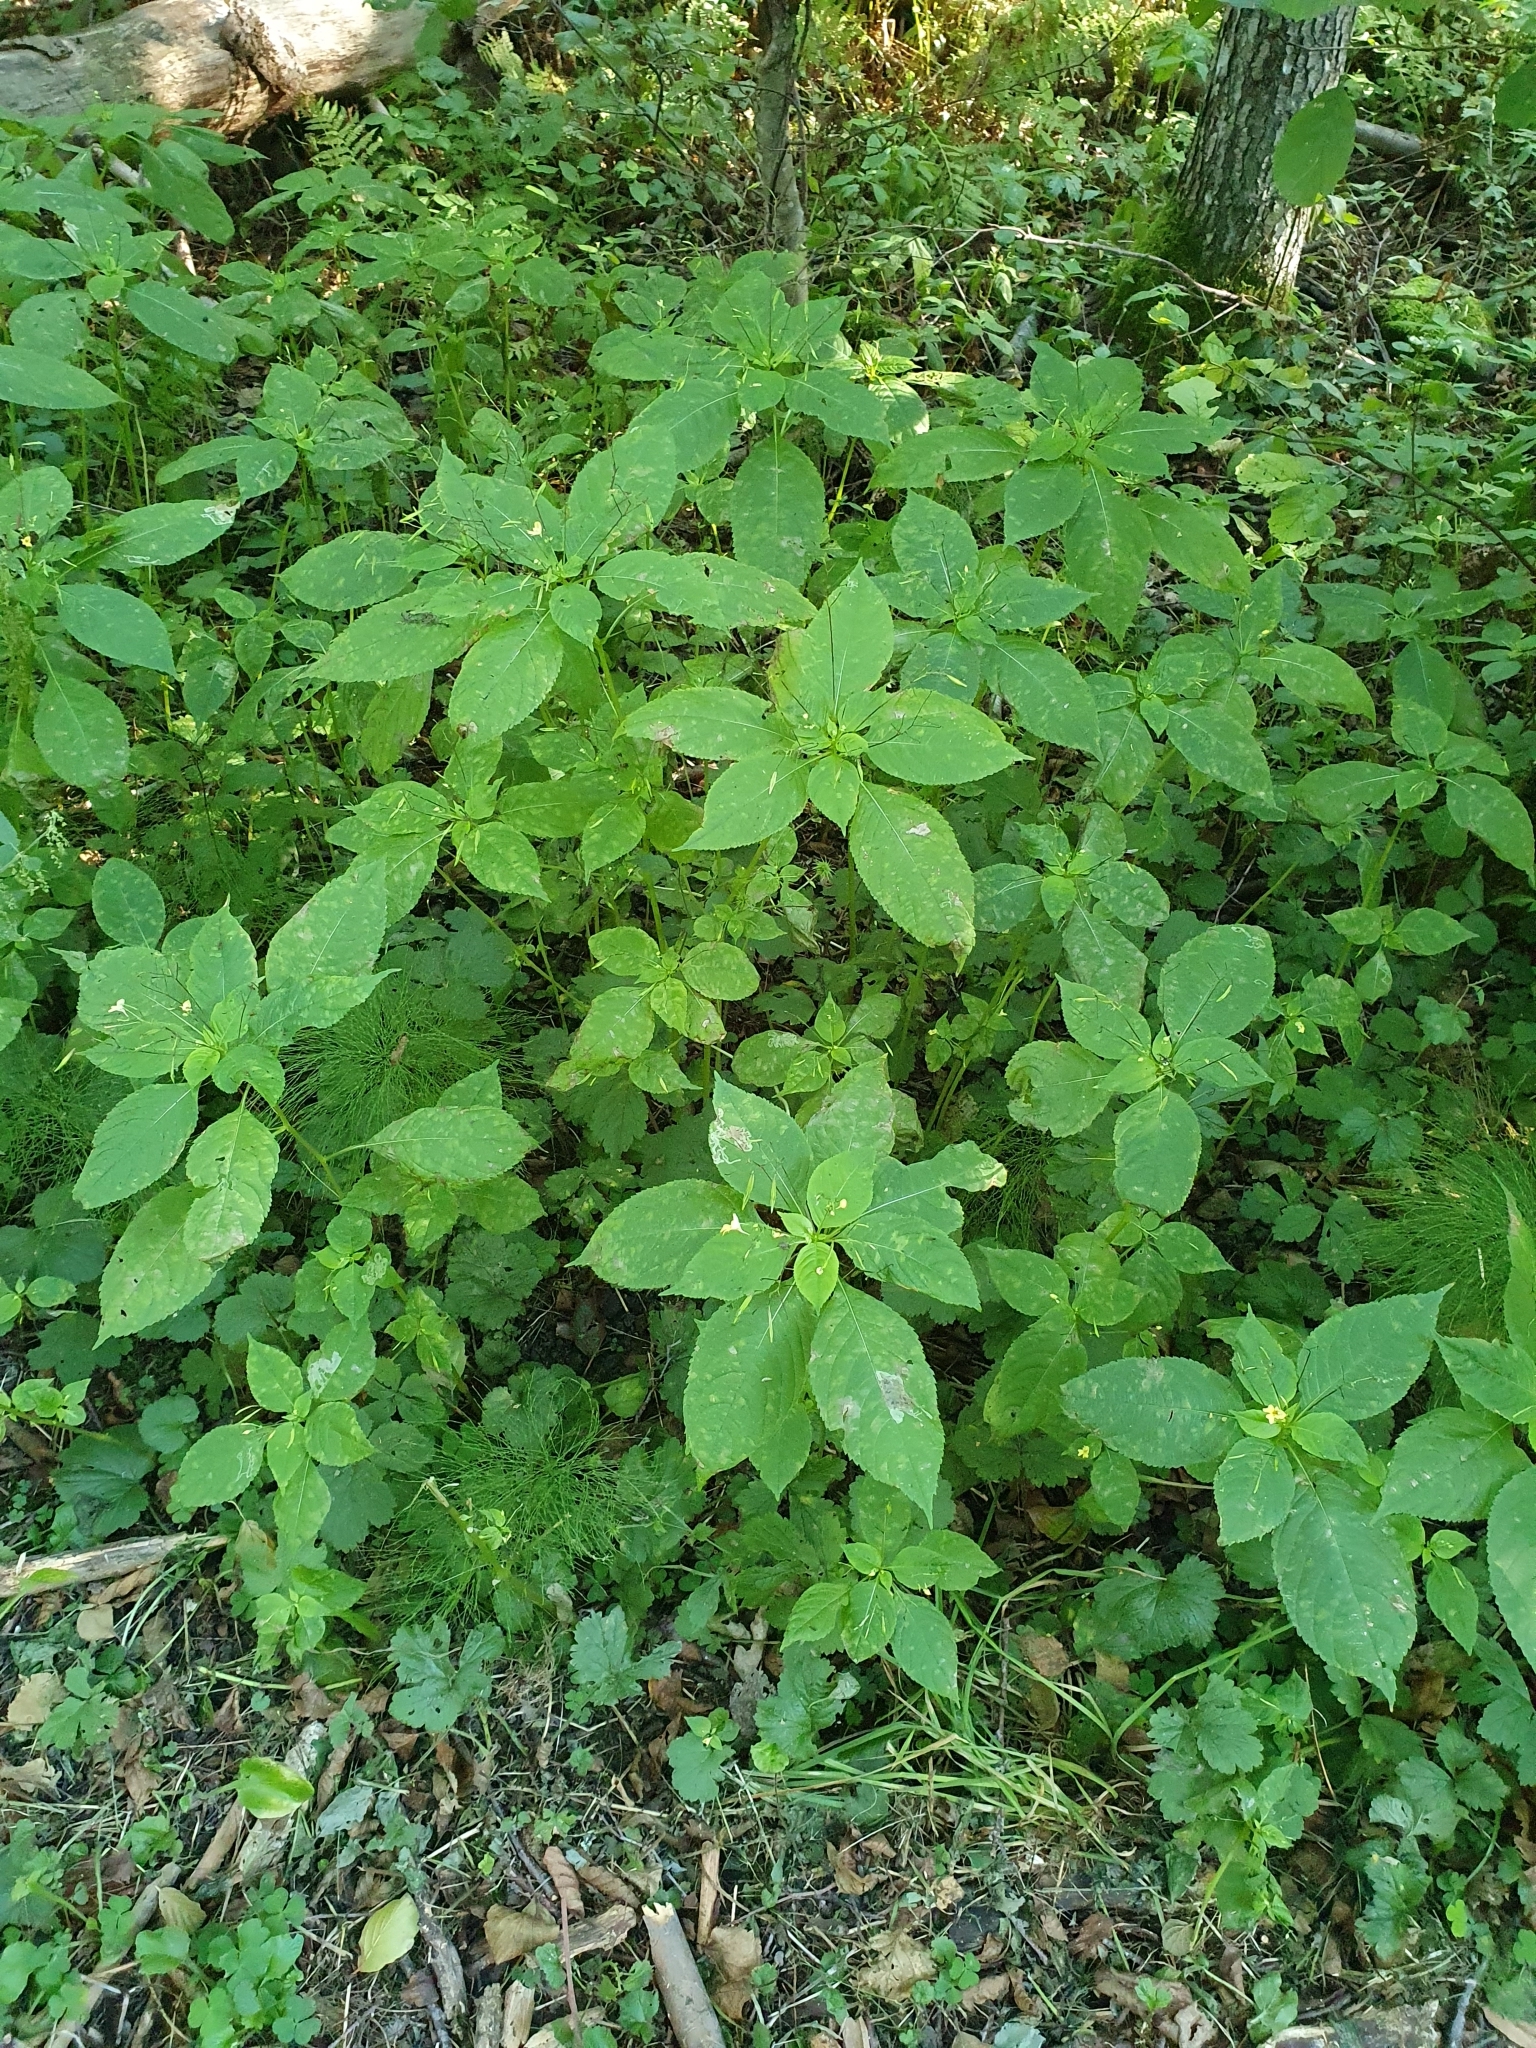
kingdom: Plantae
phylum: Tracheophyta
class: Magnoliopsida
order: Ericales
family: Balsaminaceae
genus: Impatiens
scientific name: Impatiens parviflora
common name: Small balsam
